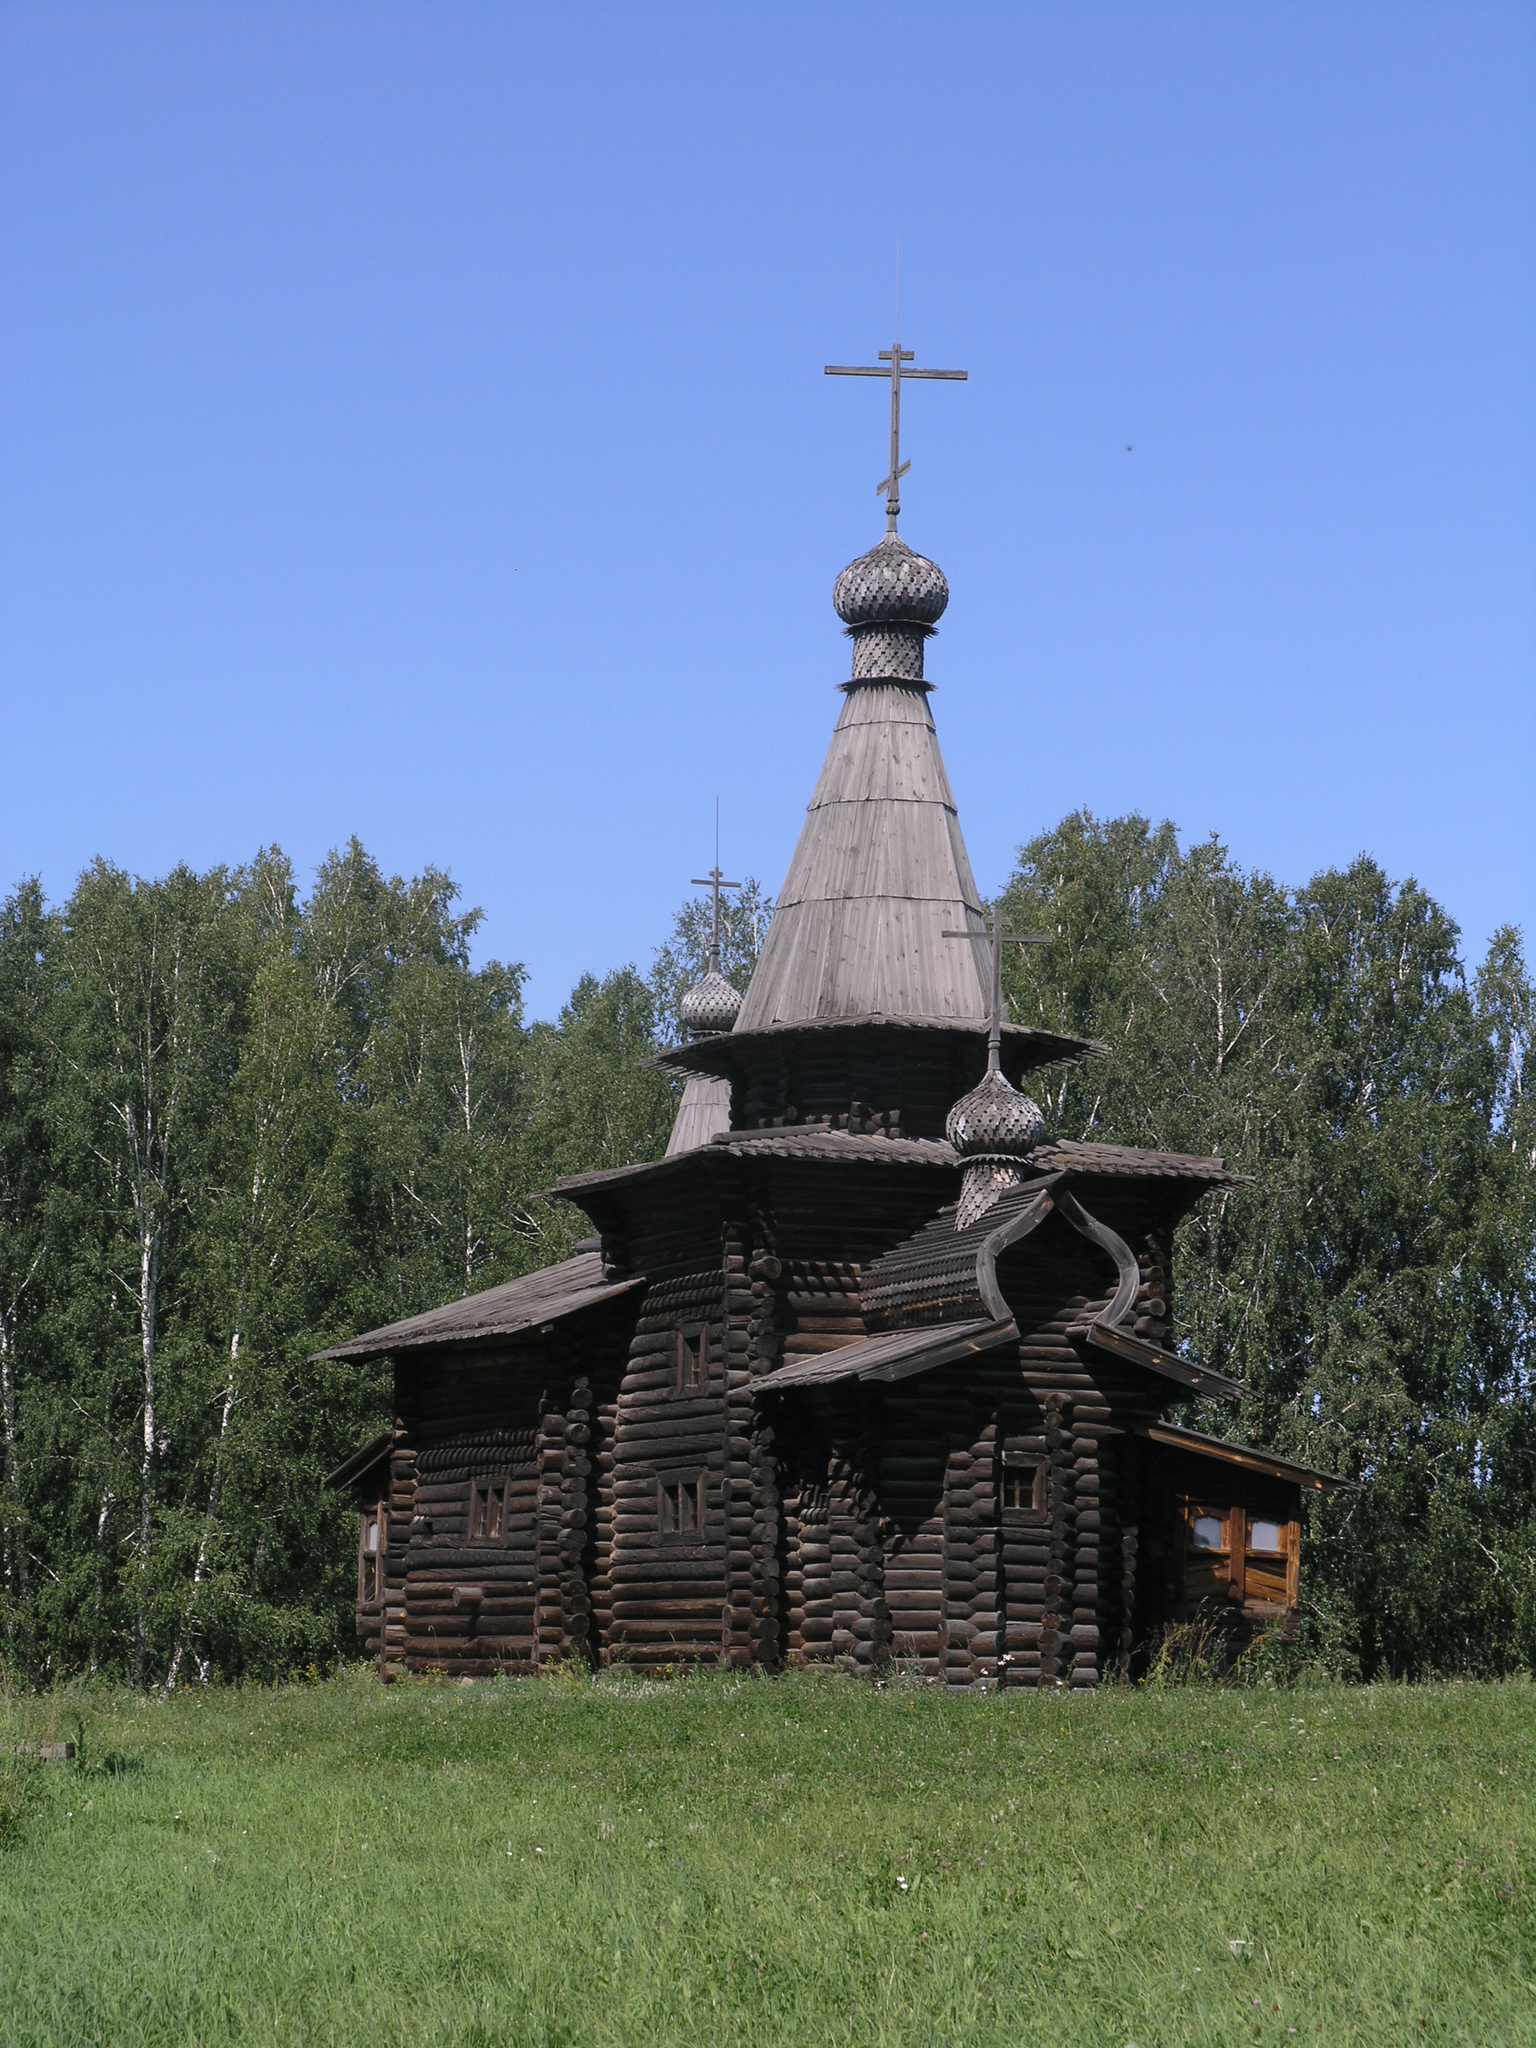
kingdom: Plantae
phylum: Tracheophyta
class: Magnoliopsida
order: Fagales
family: Betulaceae
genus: Betula
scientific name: Betula pendula
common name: Silver birch
